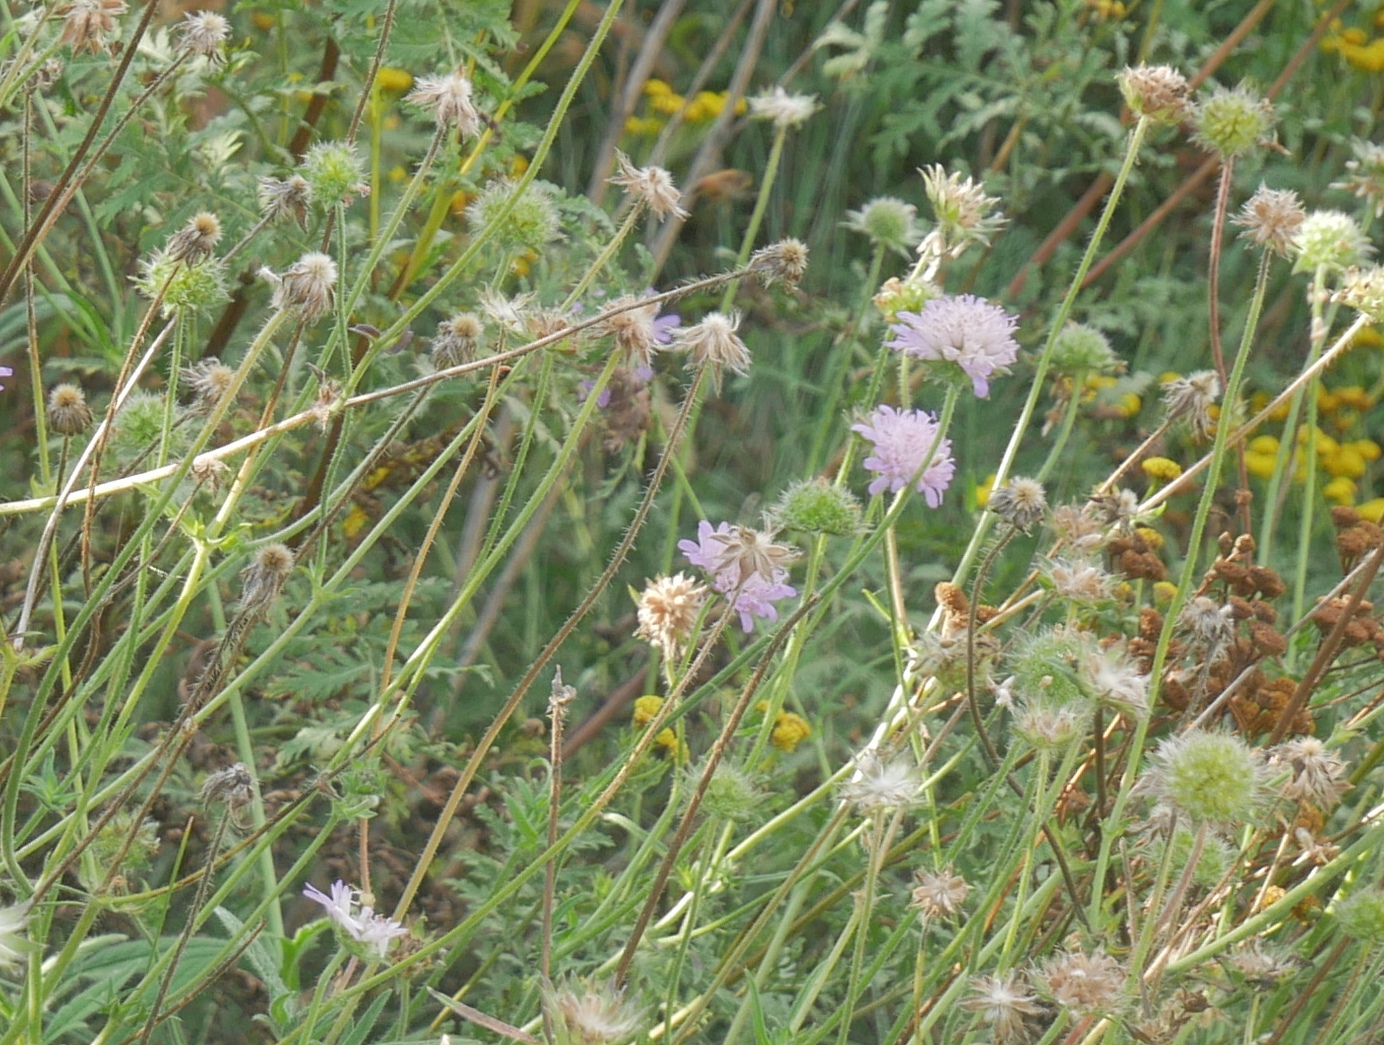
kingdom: Plantae
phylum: Tracheophyta
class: Magnoliopsida
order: Dipsacales
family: Caprifoliaceae
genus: Knautia
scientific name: Knautia arvensis
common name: Field scabiosa
